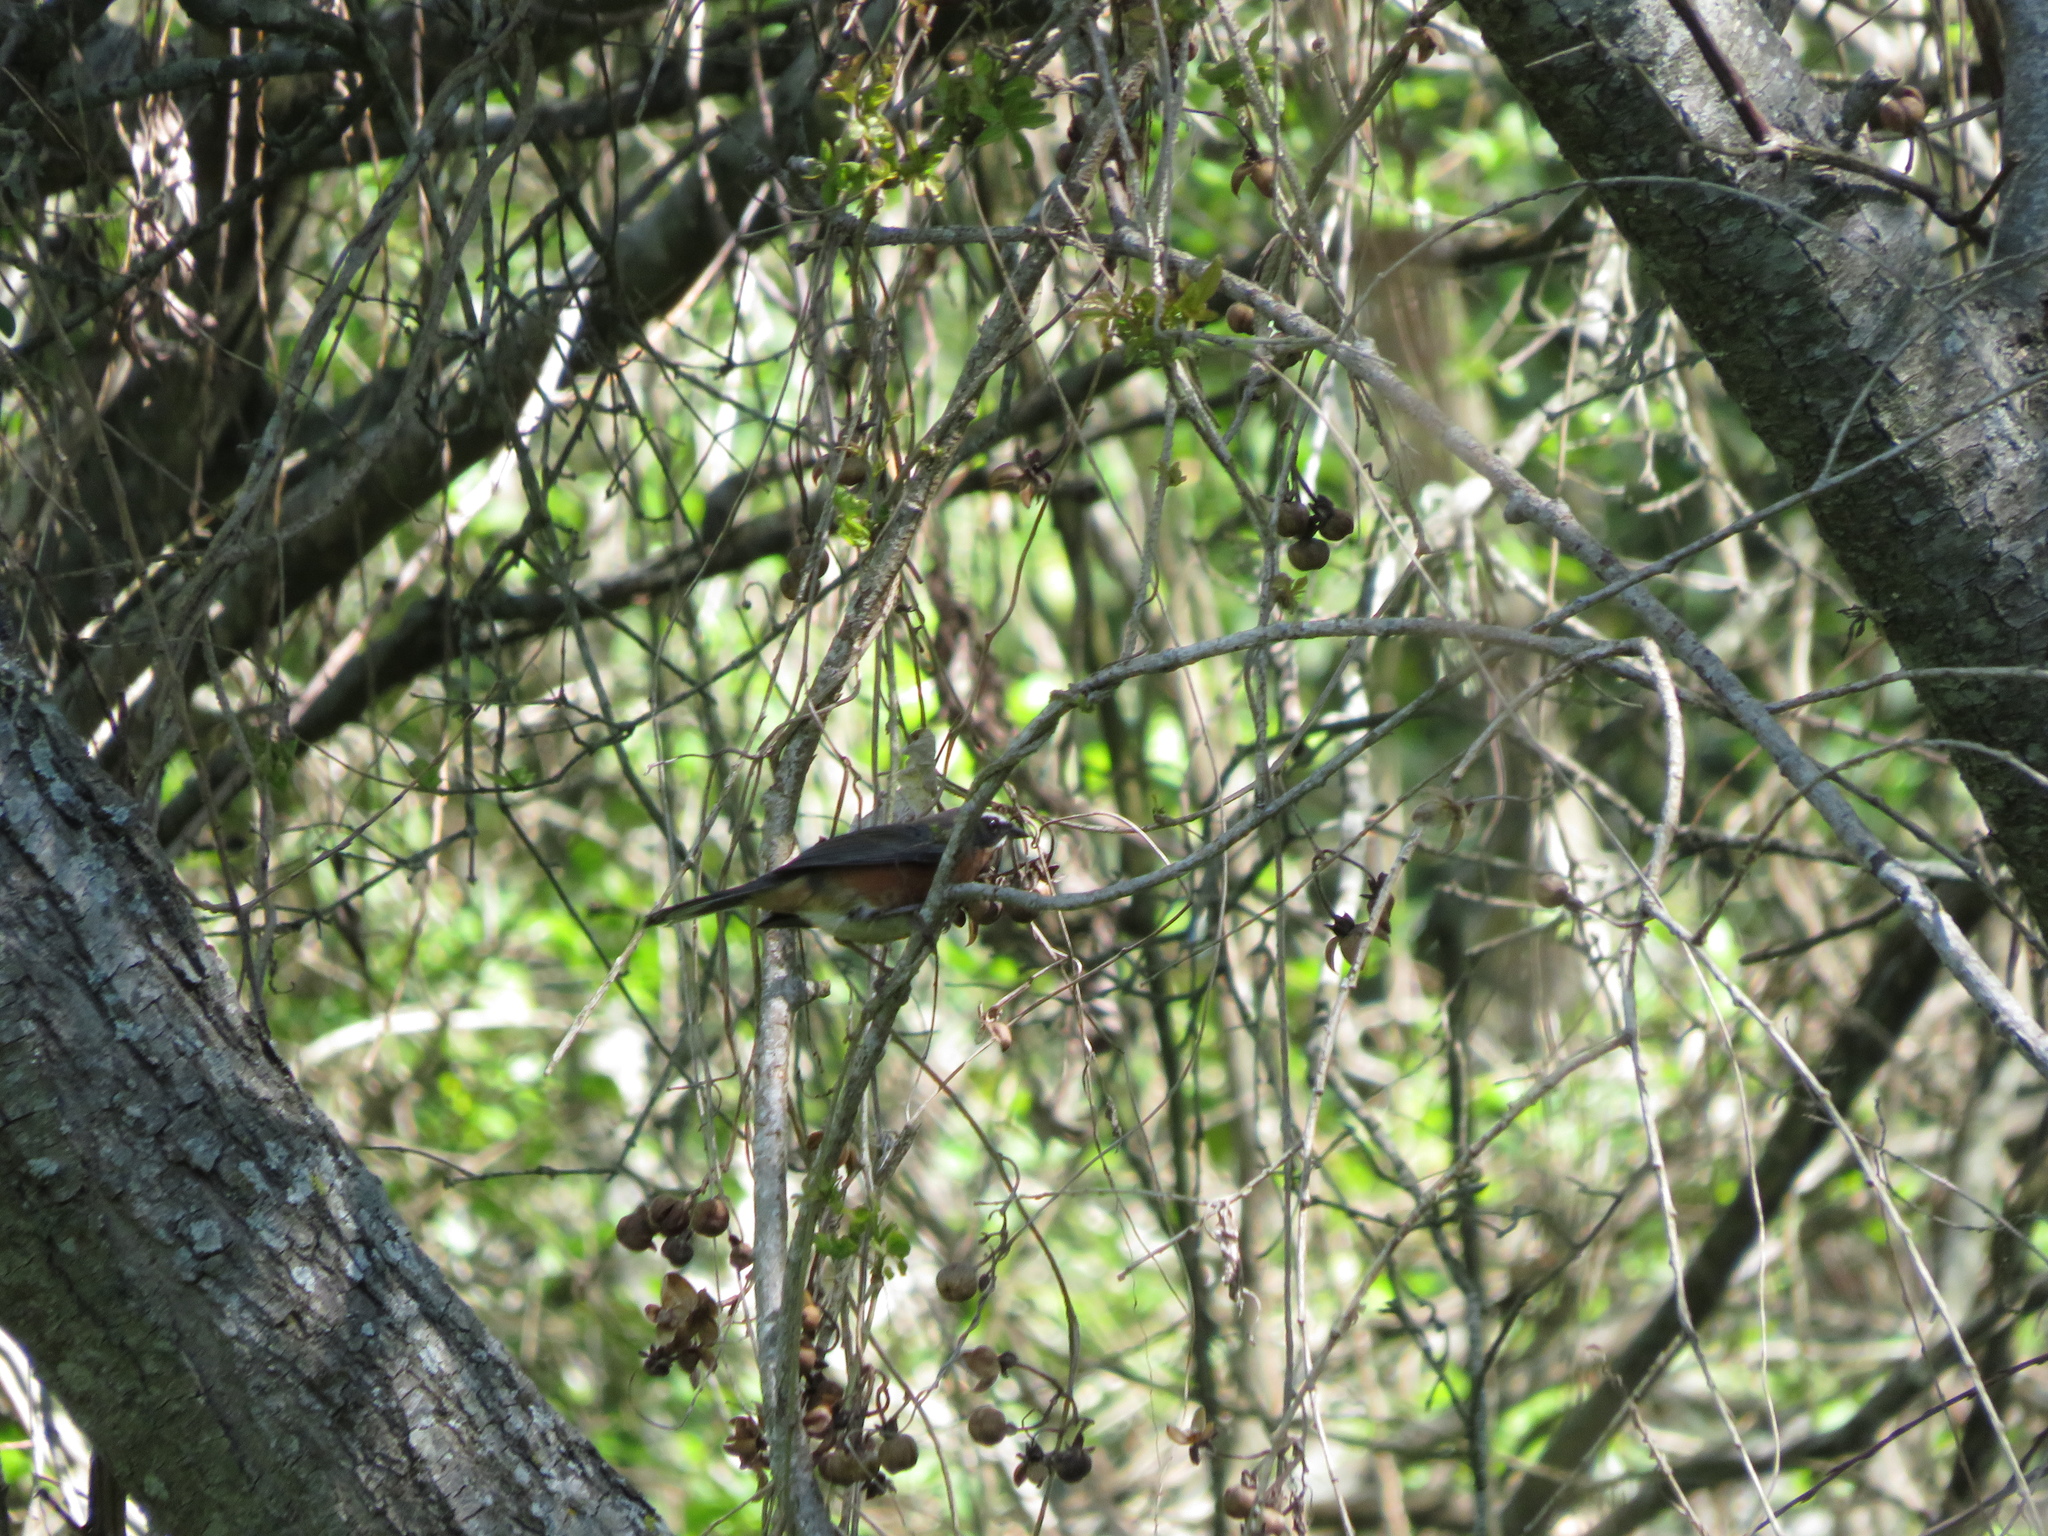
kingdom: Animalia
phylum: Chordata
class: Aves
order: Passeriformes
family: Thraupidae
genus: Poospiza
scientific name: Poospiza nigrorufa
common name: Black-and-rufous warbling finch
